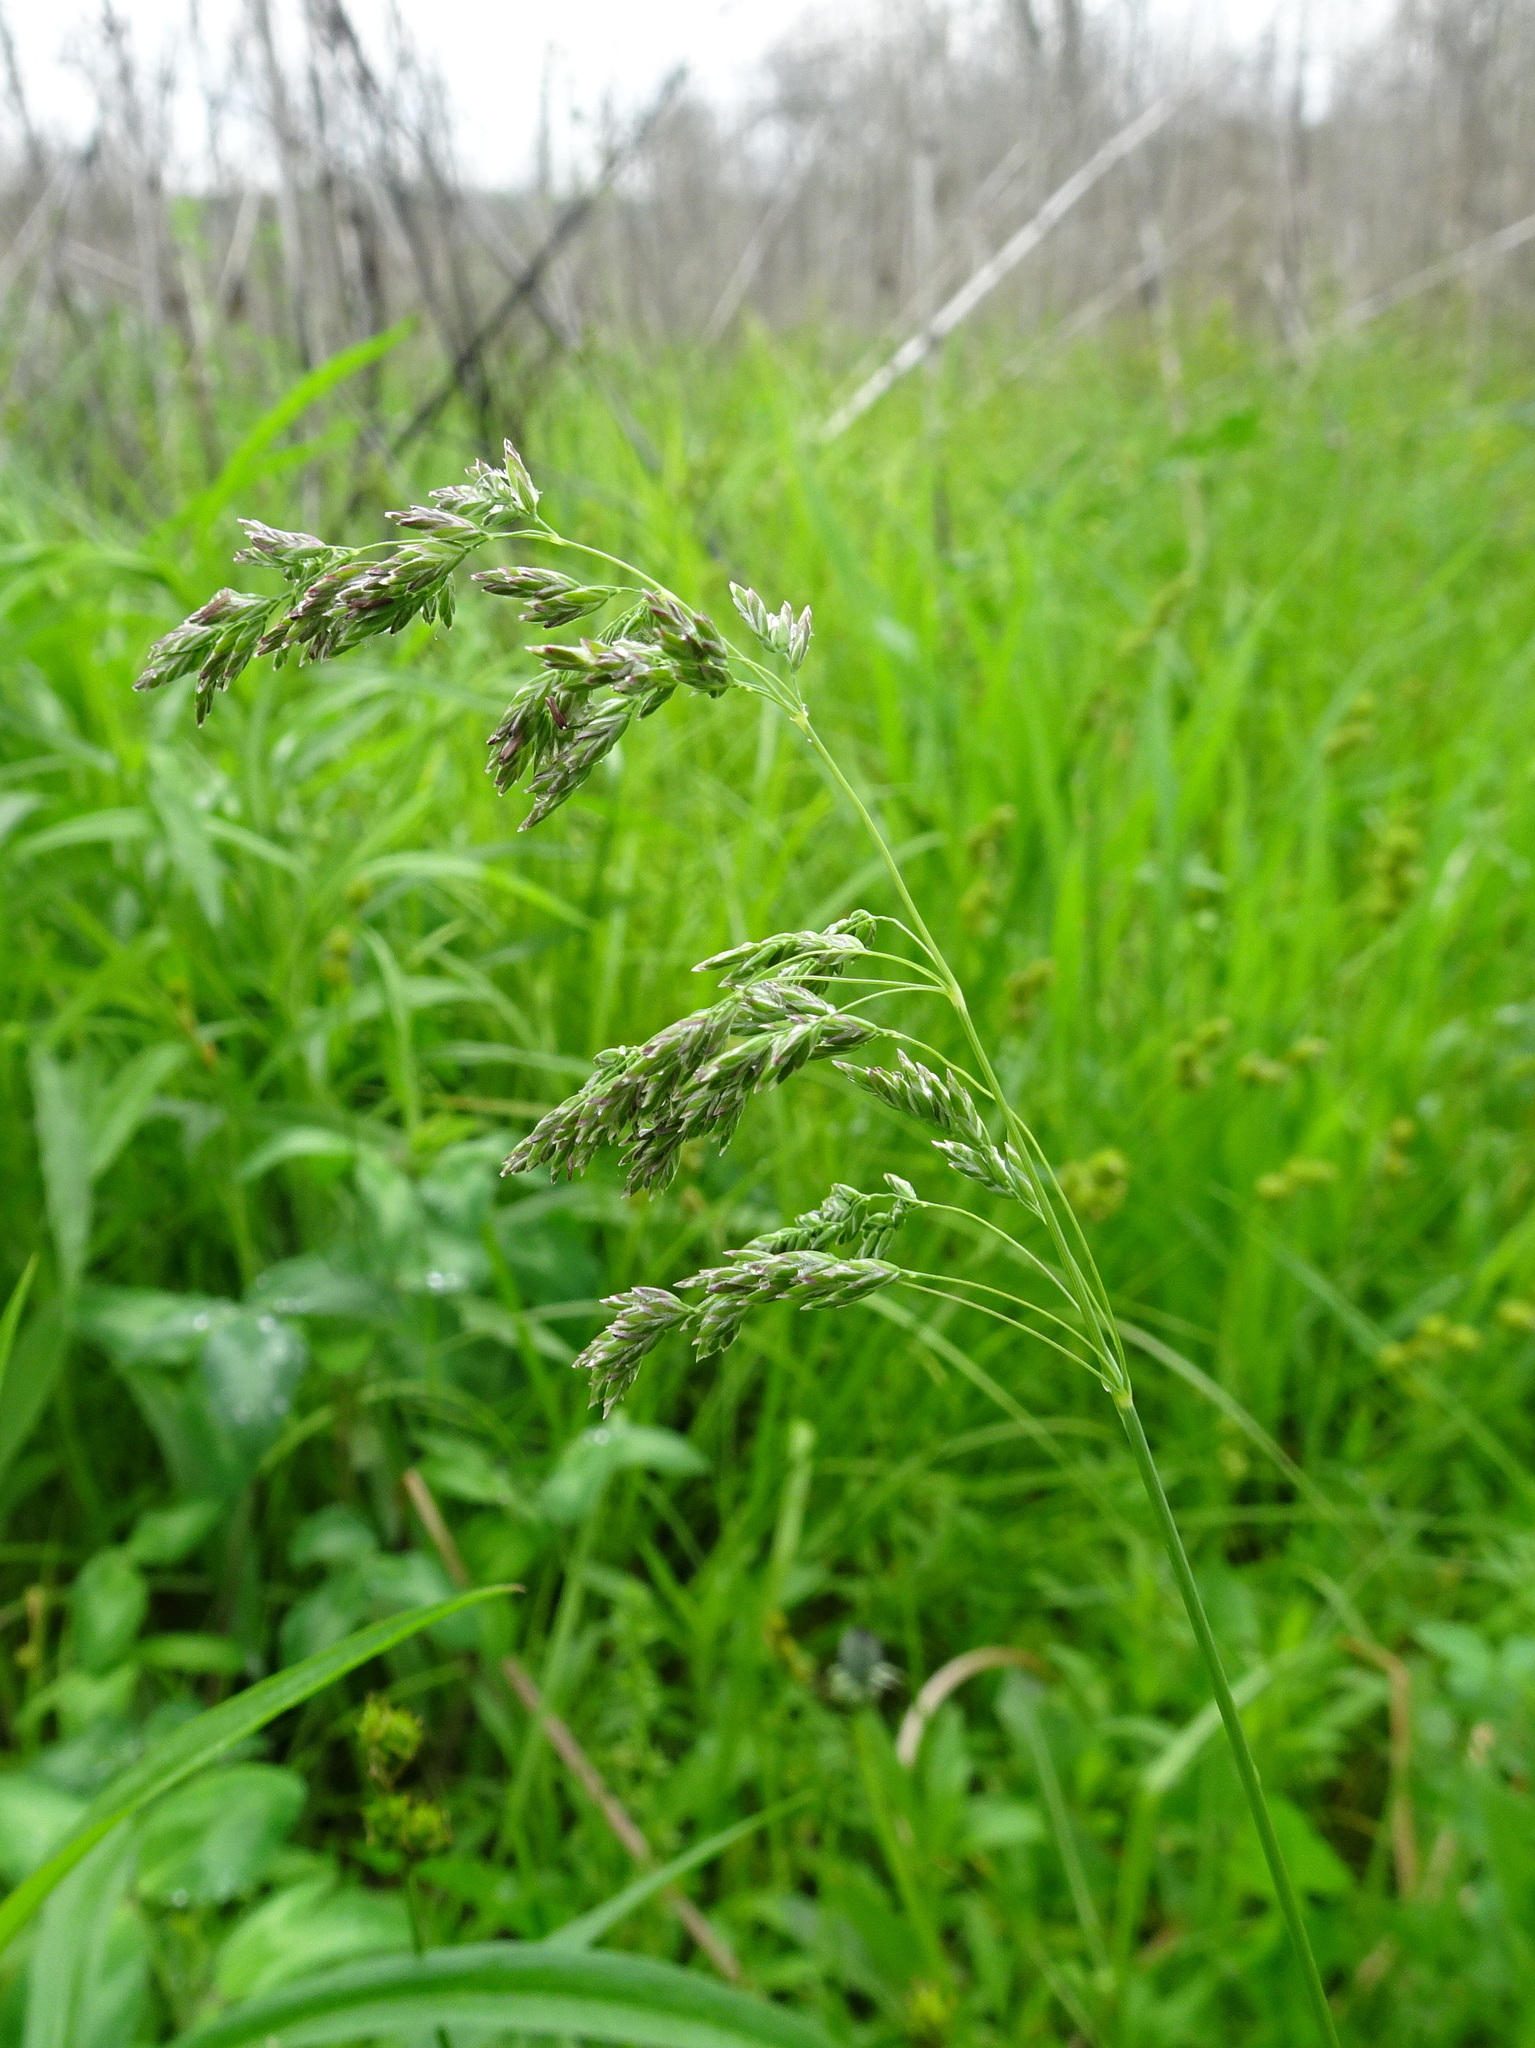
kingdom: Plantae
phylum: Tracheophyta
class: Liliopsida
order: Poales
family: Poaceae
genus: Poa
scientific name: Poa pratensis
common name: Kentucky bluegrass
